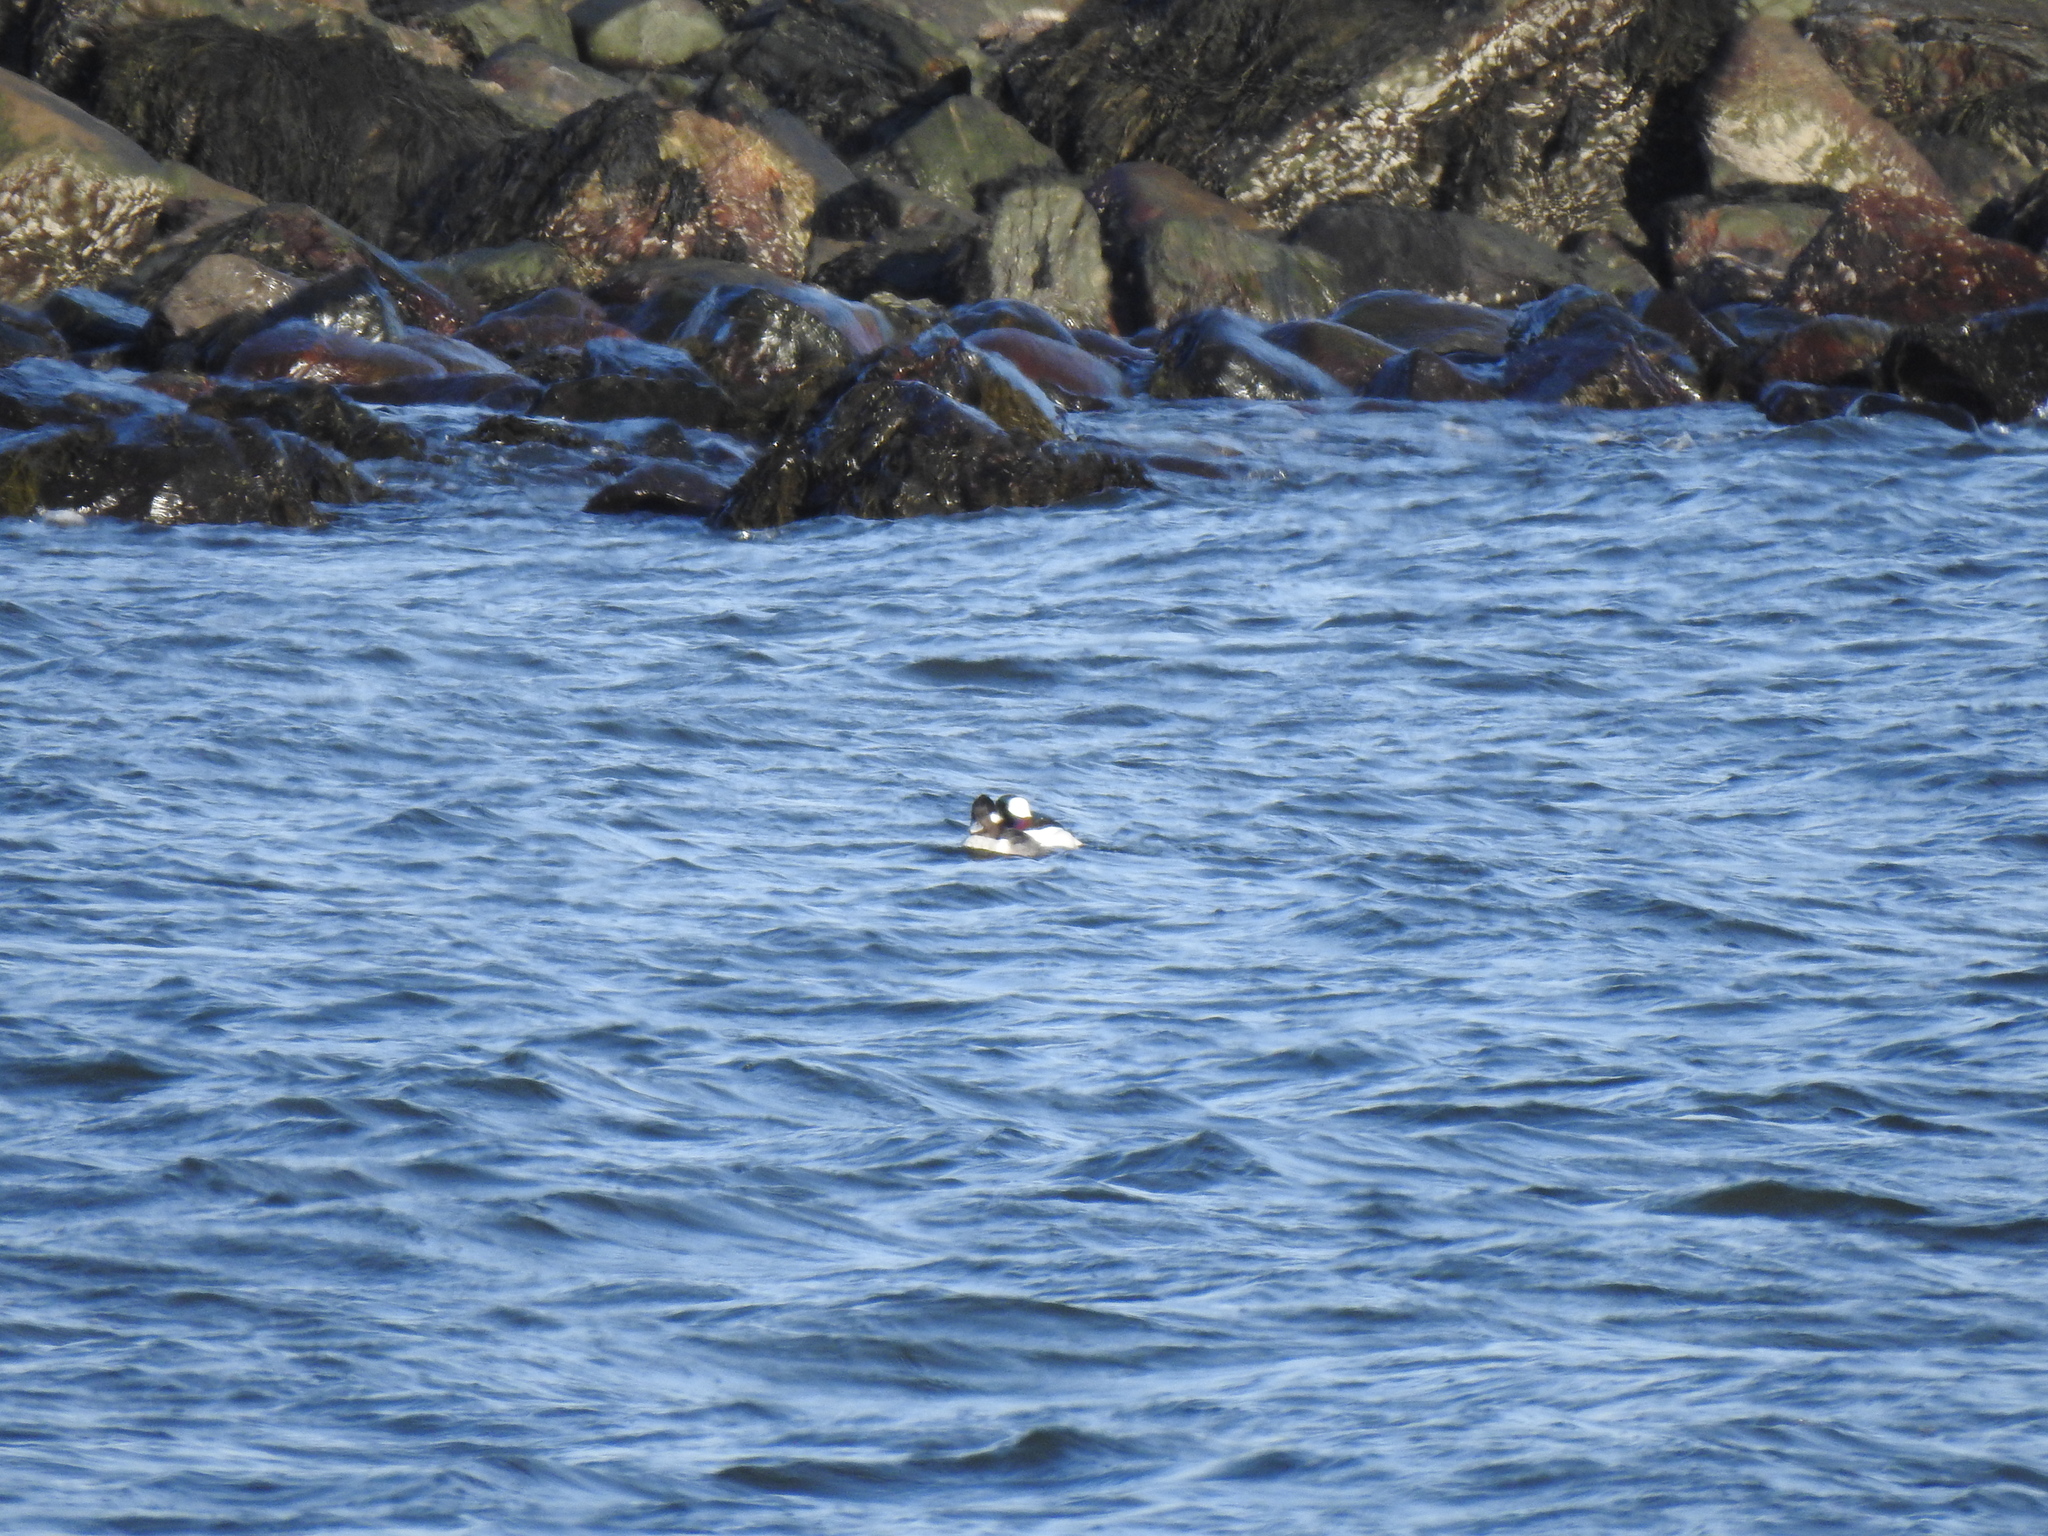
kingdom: Animalia
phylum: Chordata
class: Aves
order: Anseriformes
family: Anatidae
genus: Bucephala
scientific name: Bucephala albeola
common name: Bufflehead
